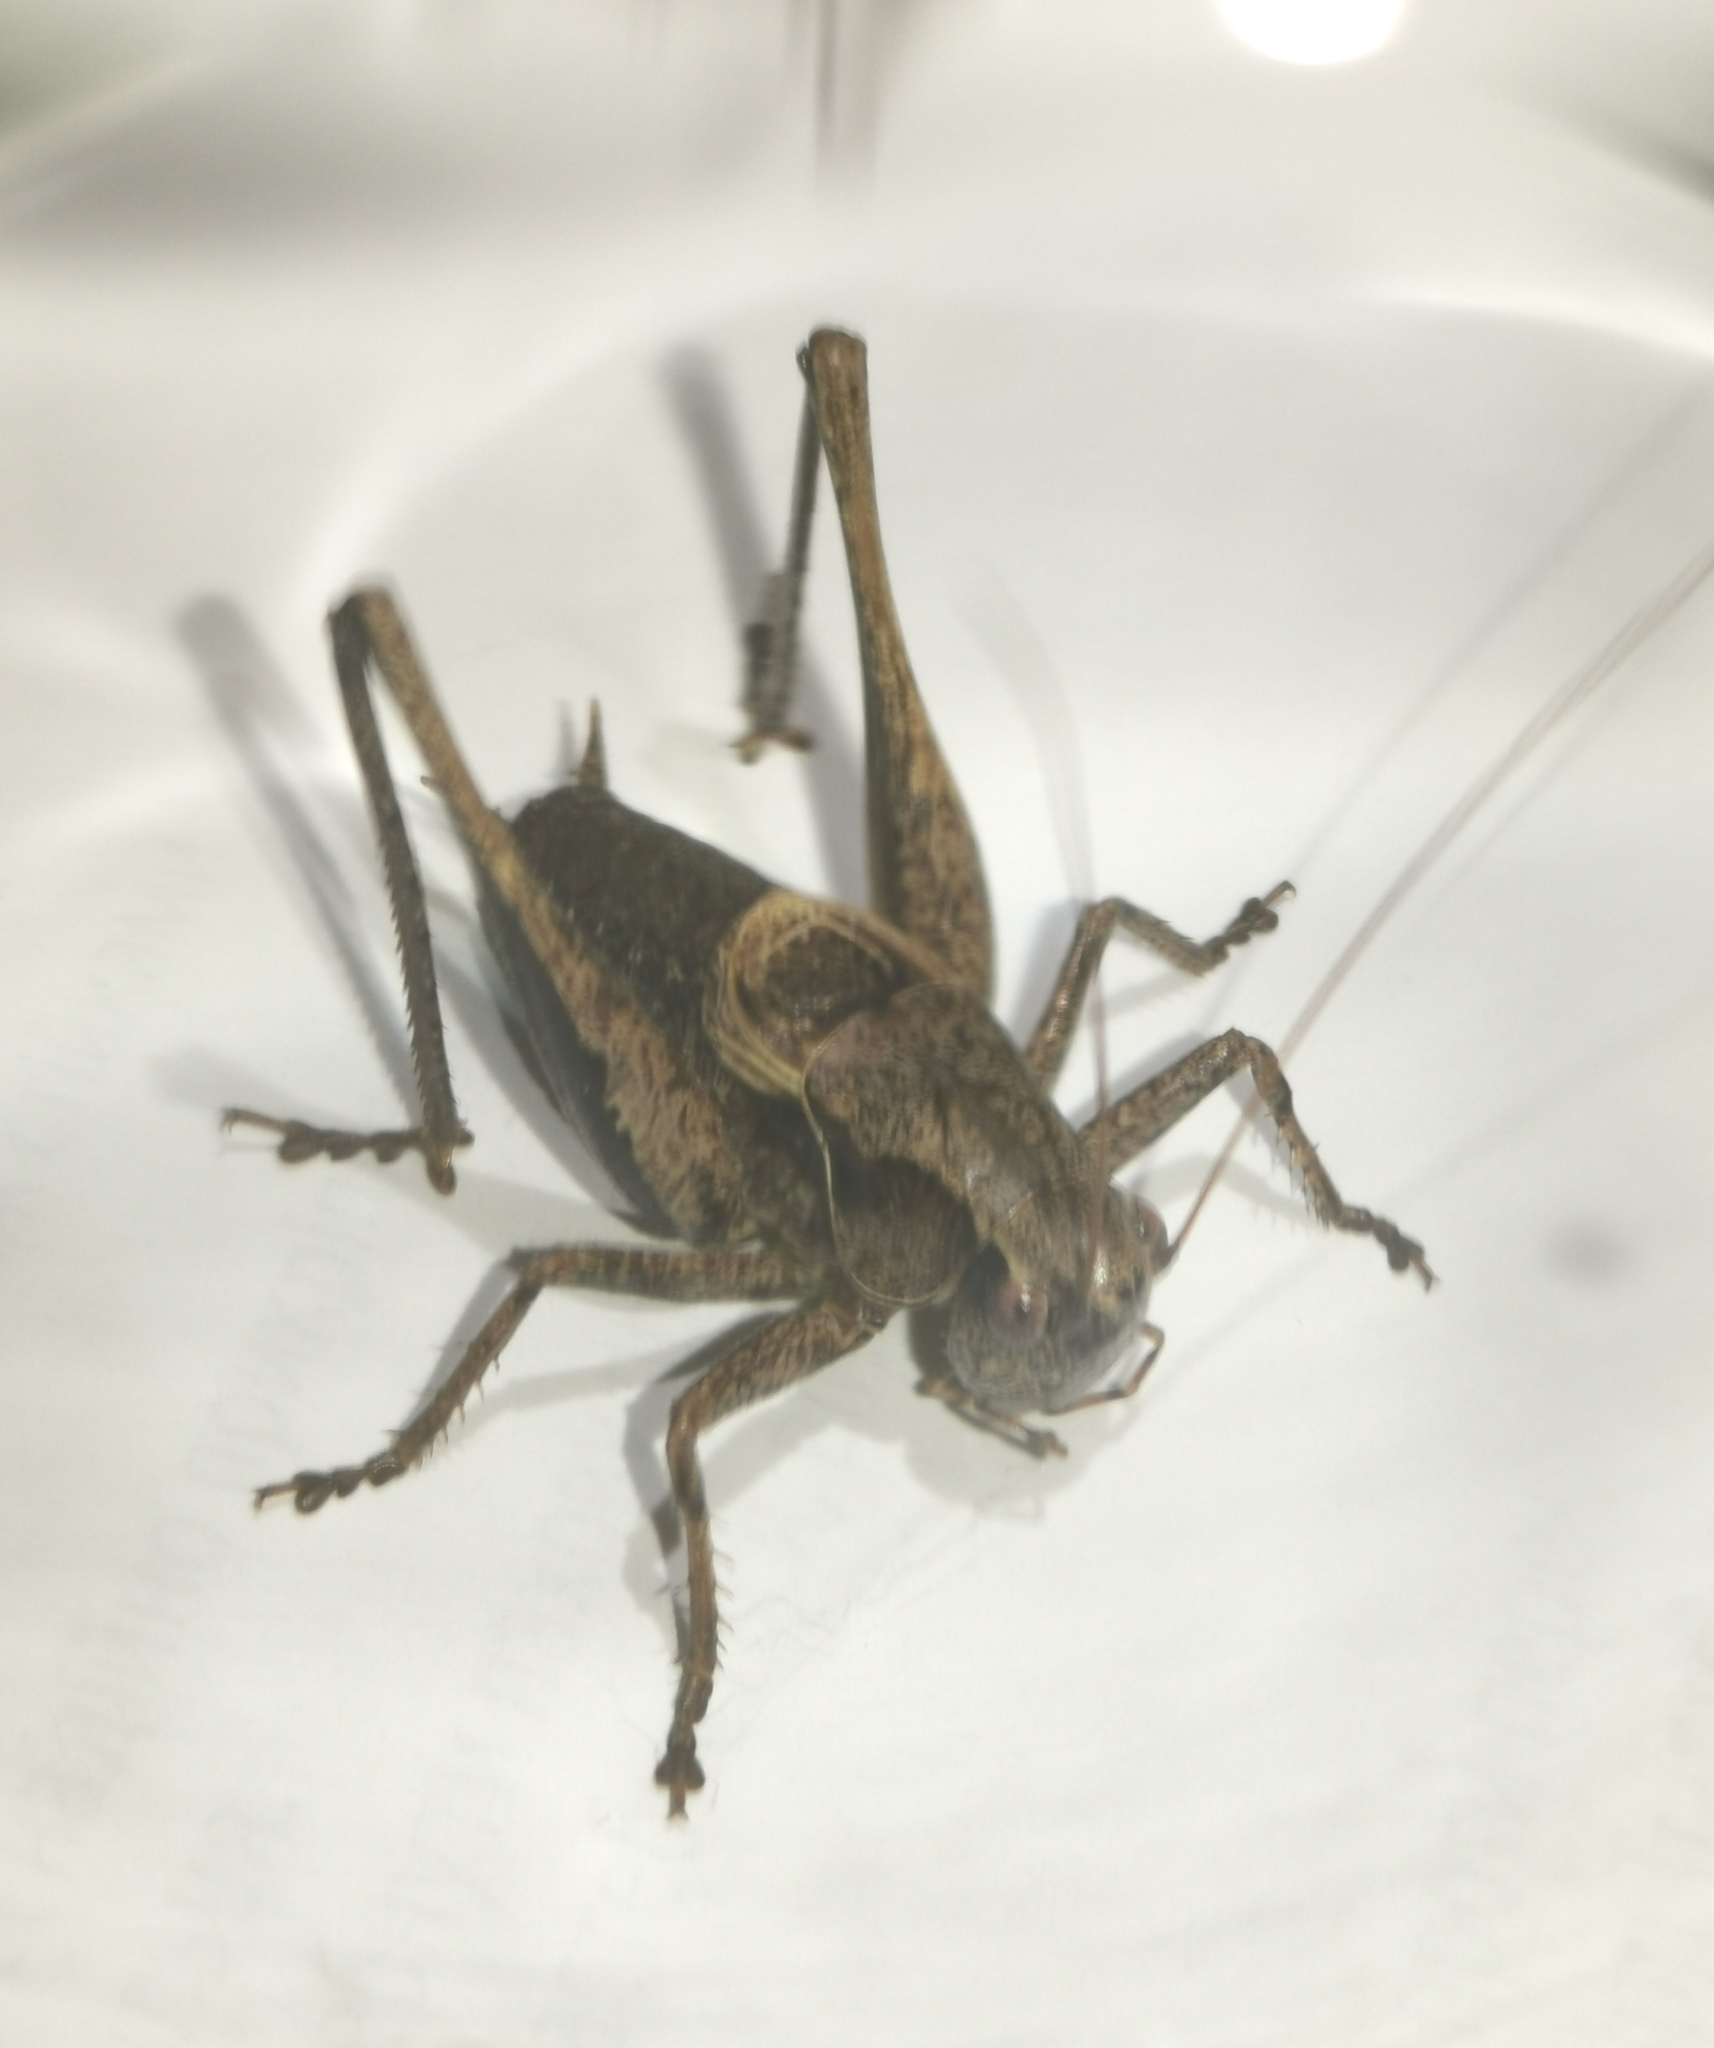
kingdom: Animalia
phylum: Arthropoda
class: Insecta
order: Orthoptera
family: Tettigoniidae
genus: Pholidoptera
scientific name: Pholidoptera griseoaptera
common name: Dark bush-cricket
